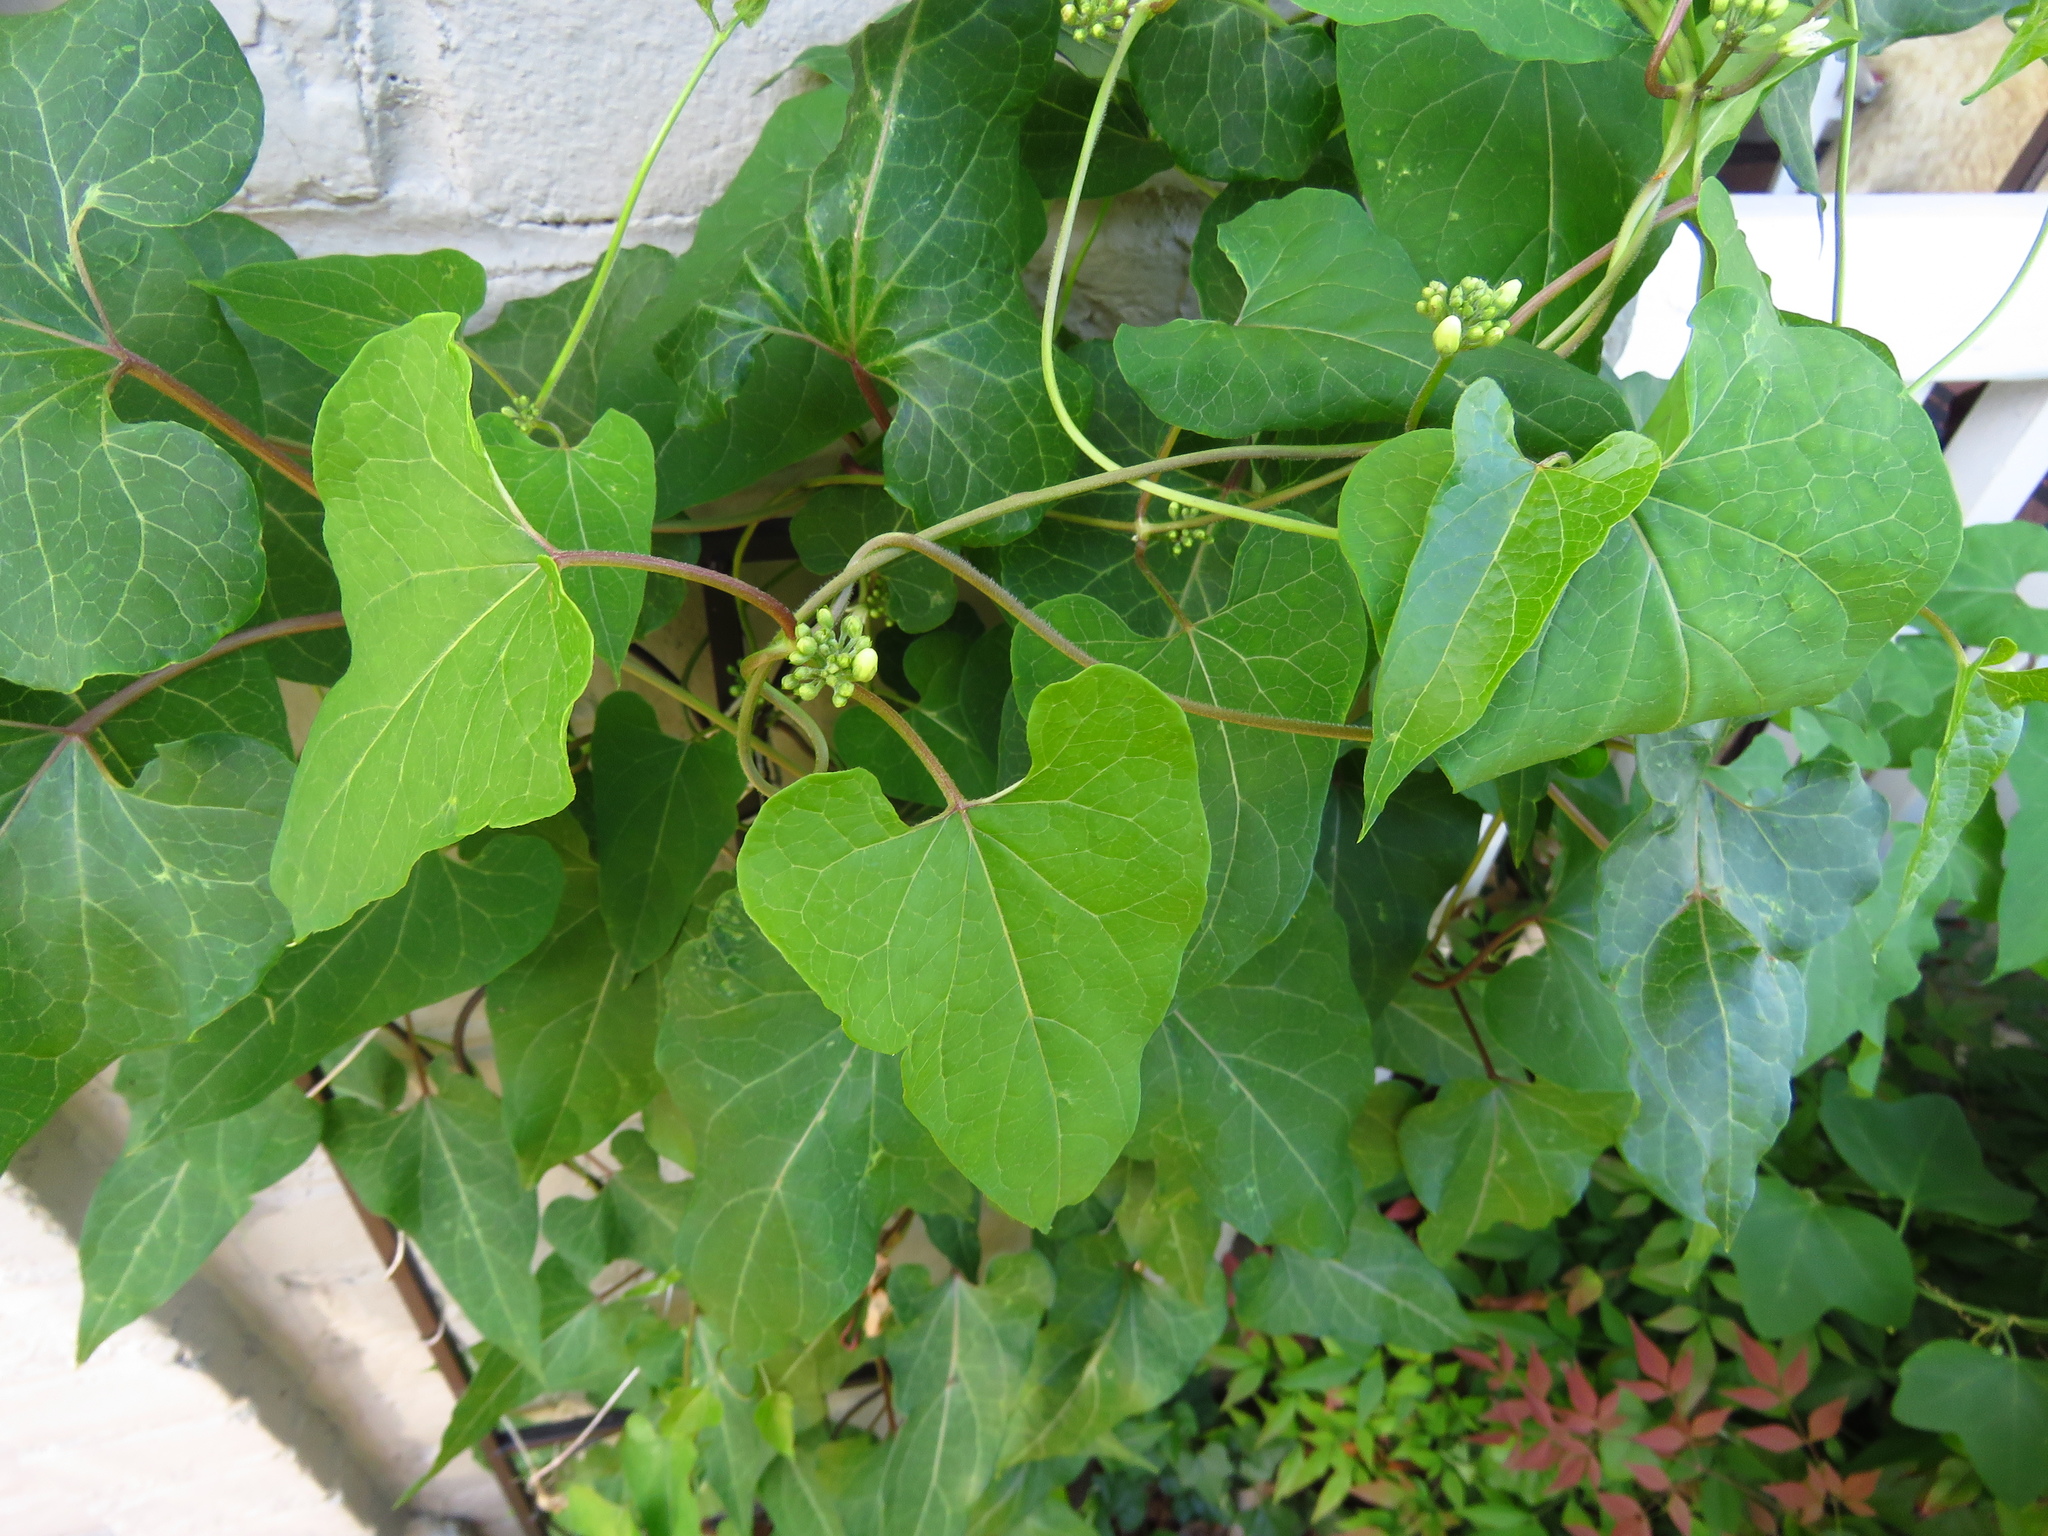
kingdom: Plantae
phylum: Tracheophyta
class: Magnoliopsida
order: Gentianales
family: Apocynaceae
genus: Cynanchum
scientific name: Cynanchum laeve
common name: Sandvine
